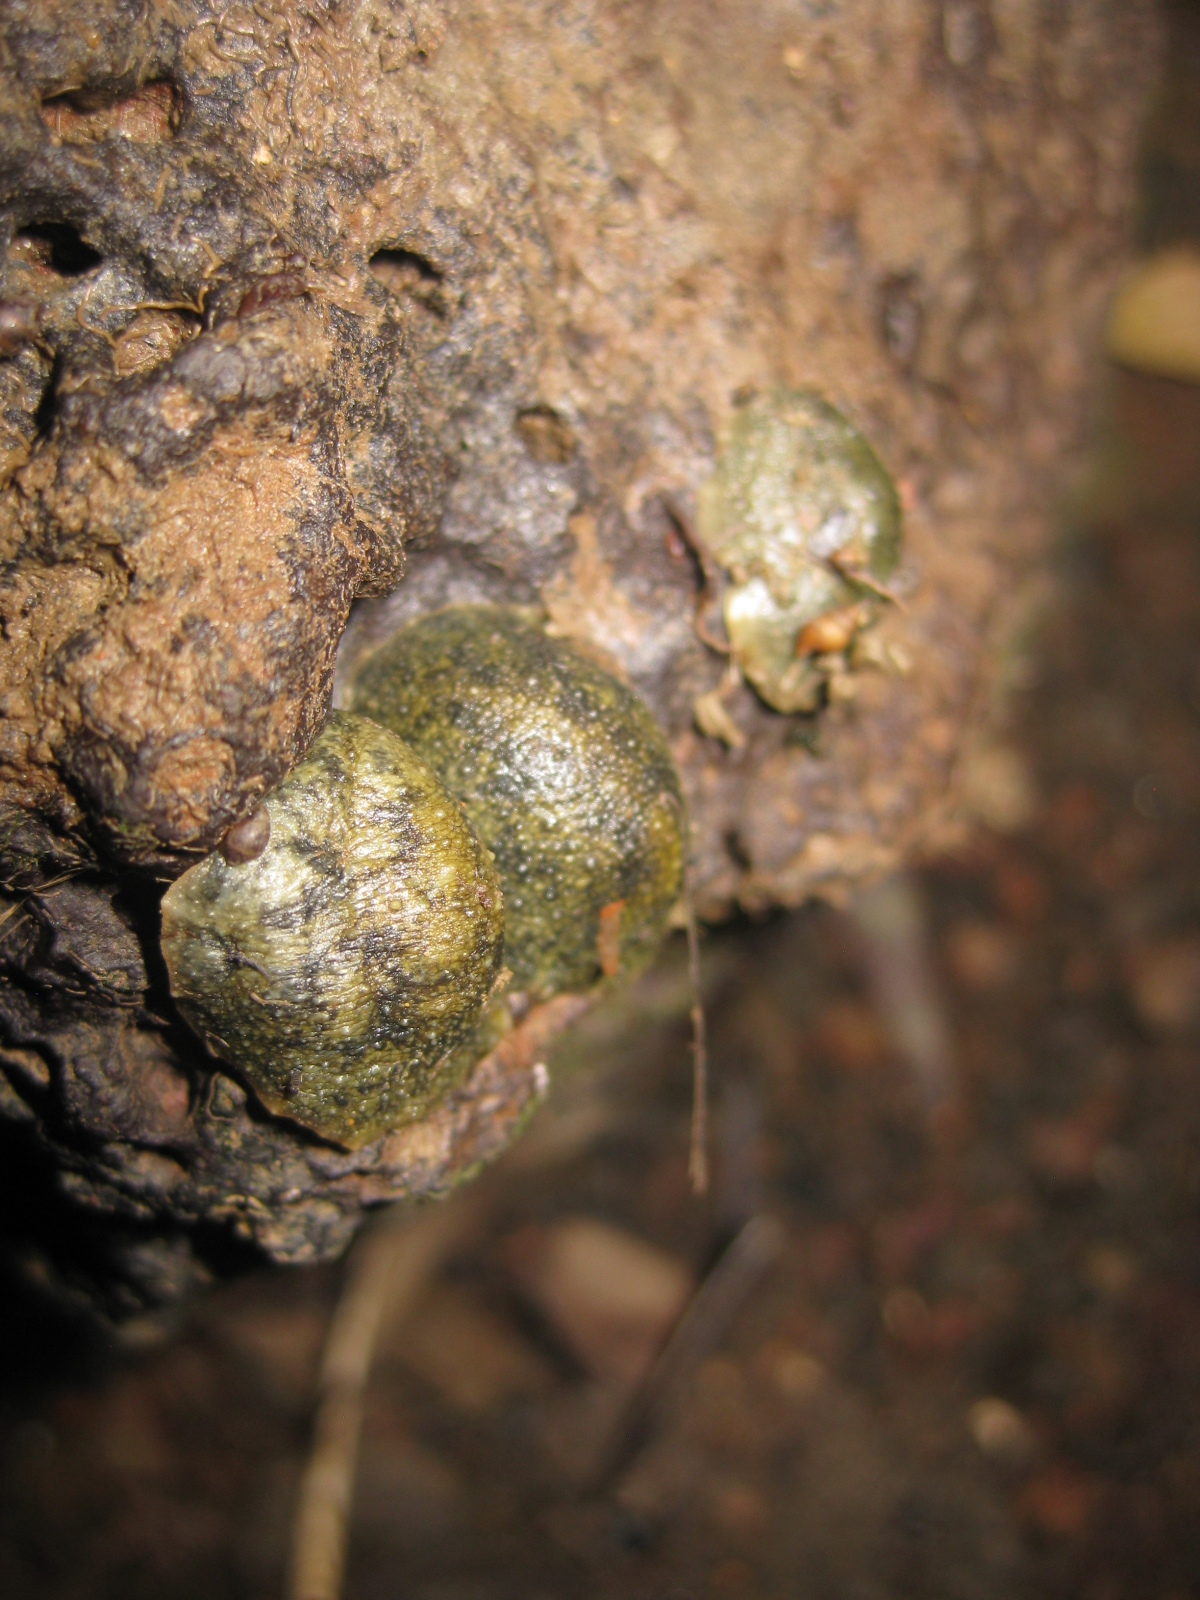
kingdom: Animalia
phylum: Mollusca
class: Gastropoda
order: Systellommatophora
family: Onchidiidae
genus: Onchidella
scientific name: Onchidella nigricans
